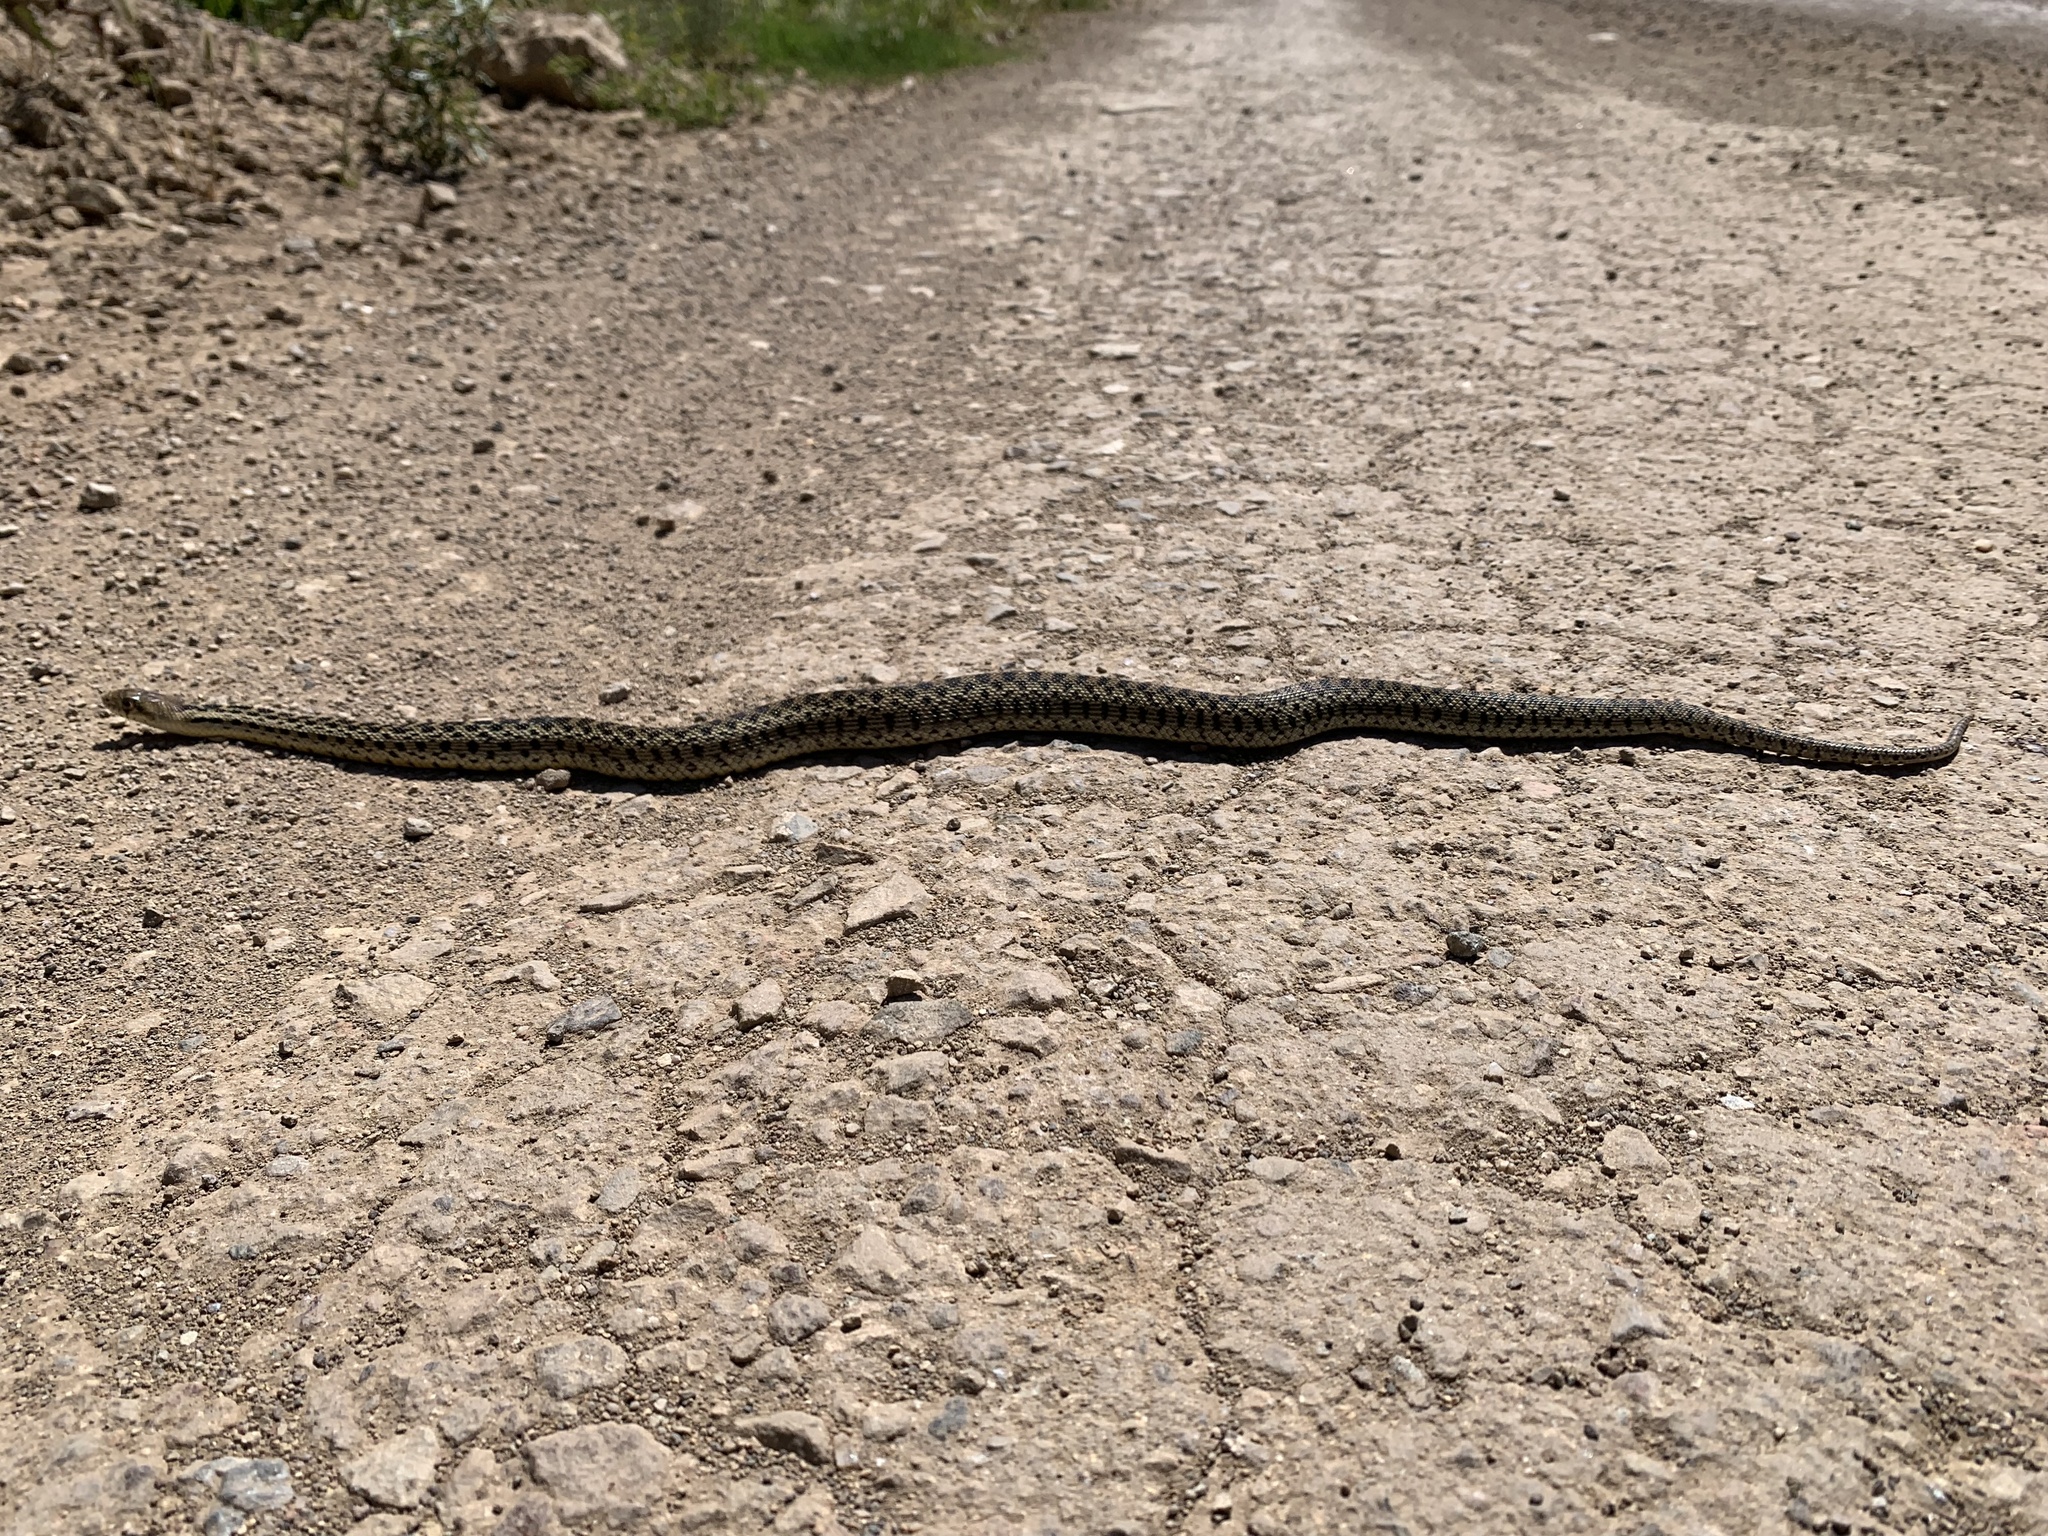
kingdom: Animalia
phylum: Chordata
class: Squamata
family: Colubridae
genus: Pituophis
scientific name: Pituophis catenifer
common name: Gopher snake
